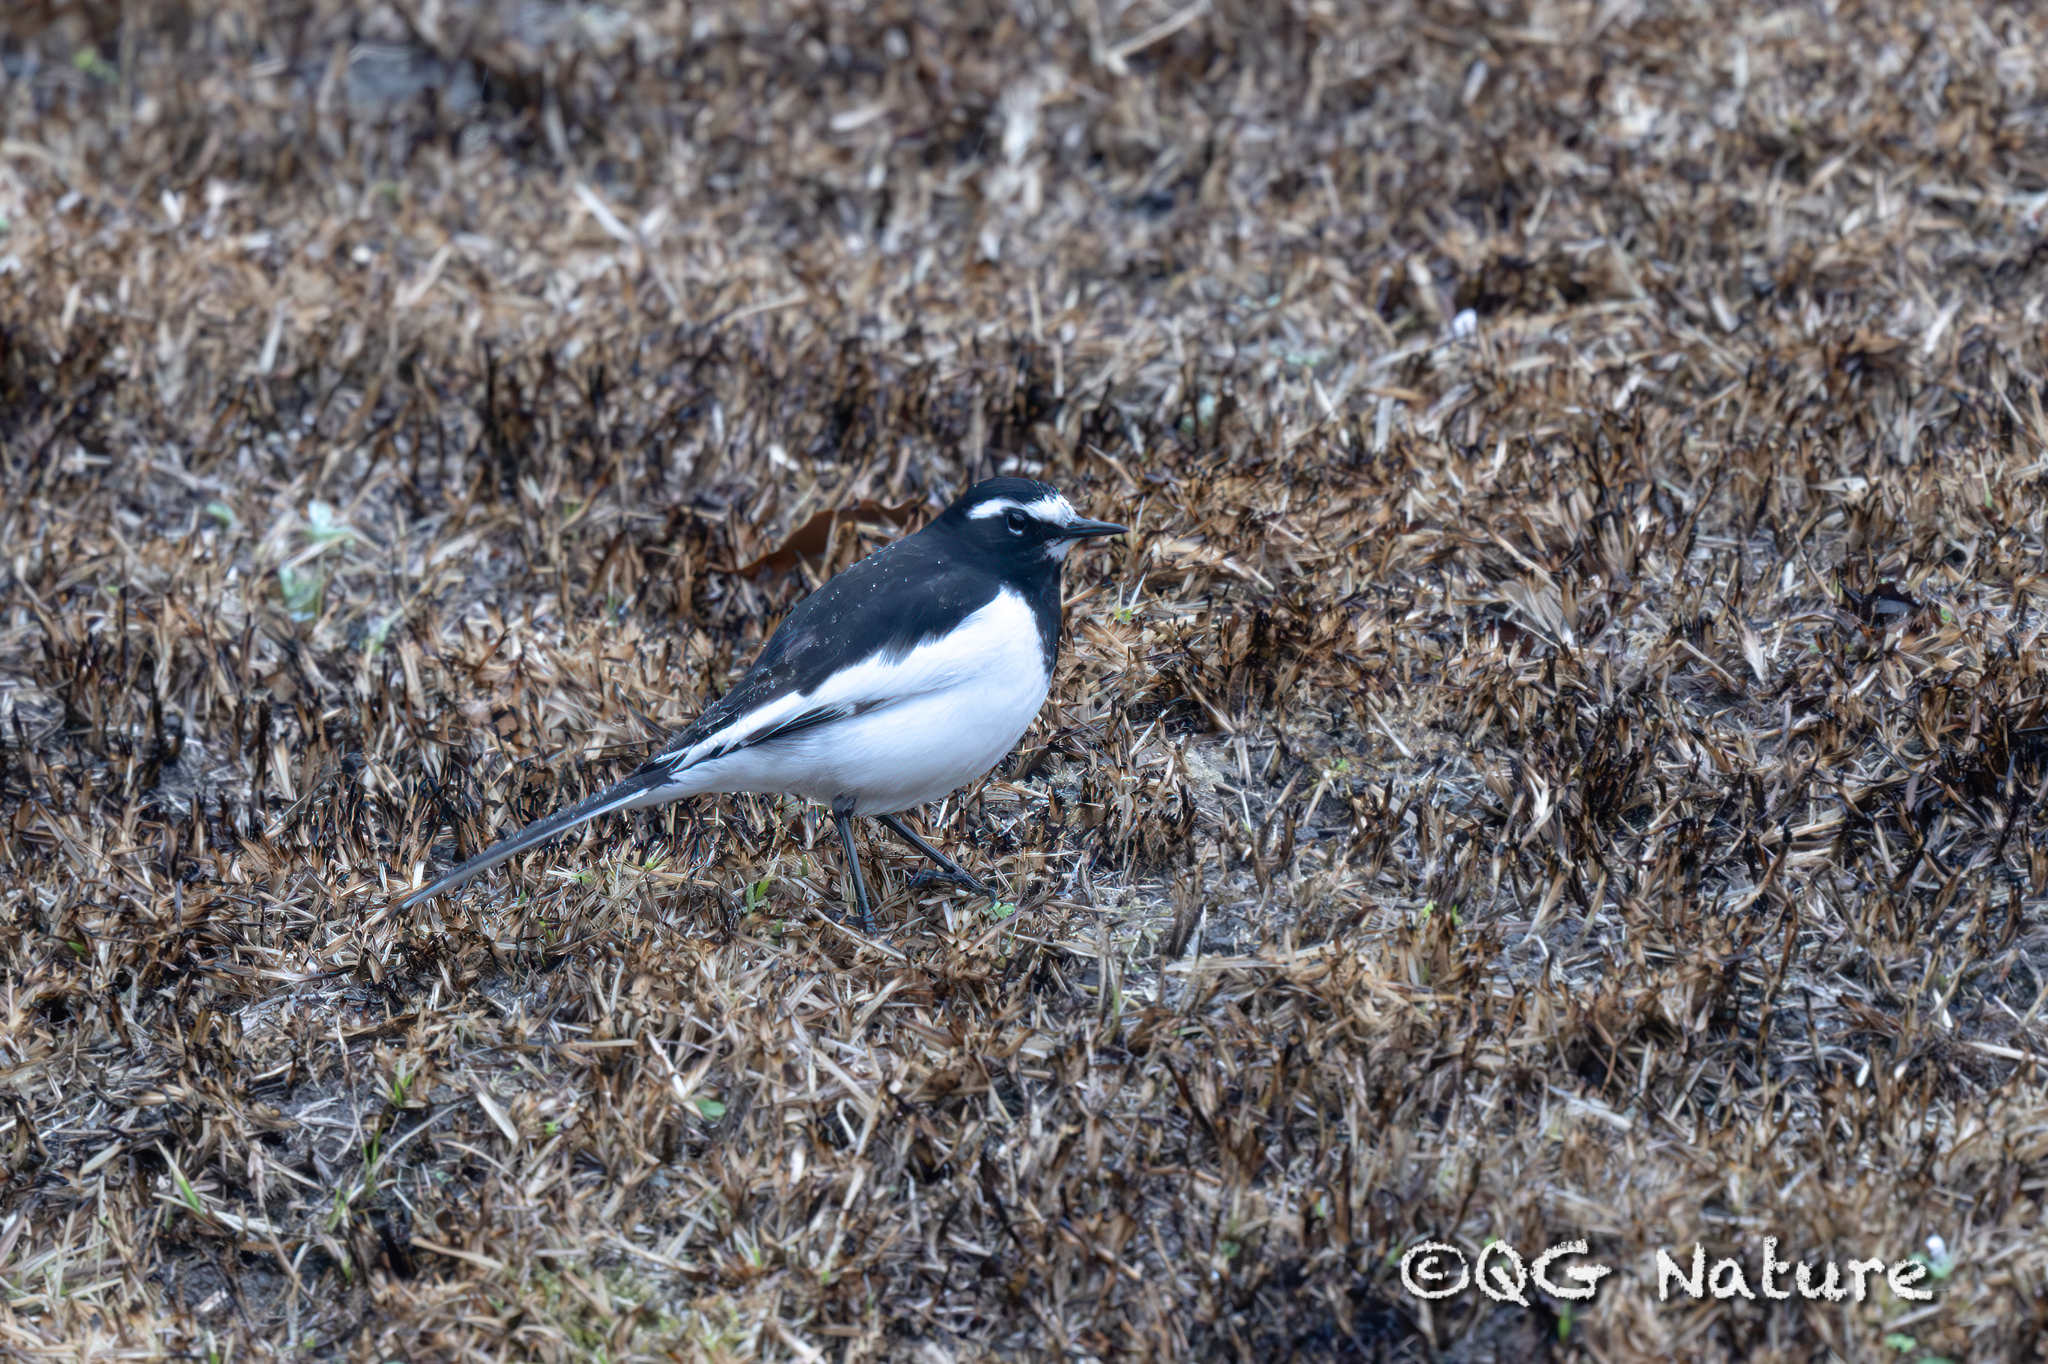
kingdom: Animalia
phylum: Chordata
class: Aves
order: Passeriformes
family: Motacillidae
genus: Motacilla
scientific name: Motacilla grandis
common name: Japanese wagtail
